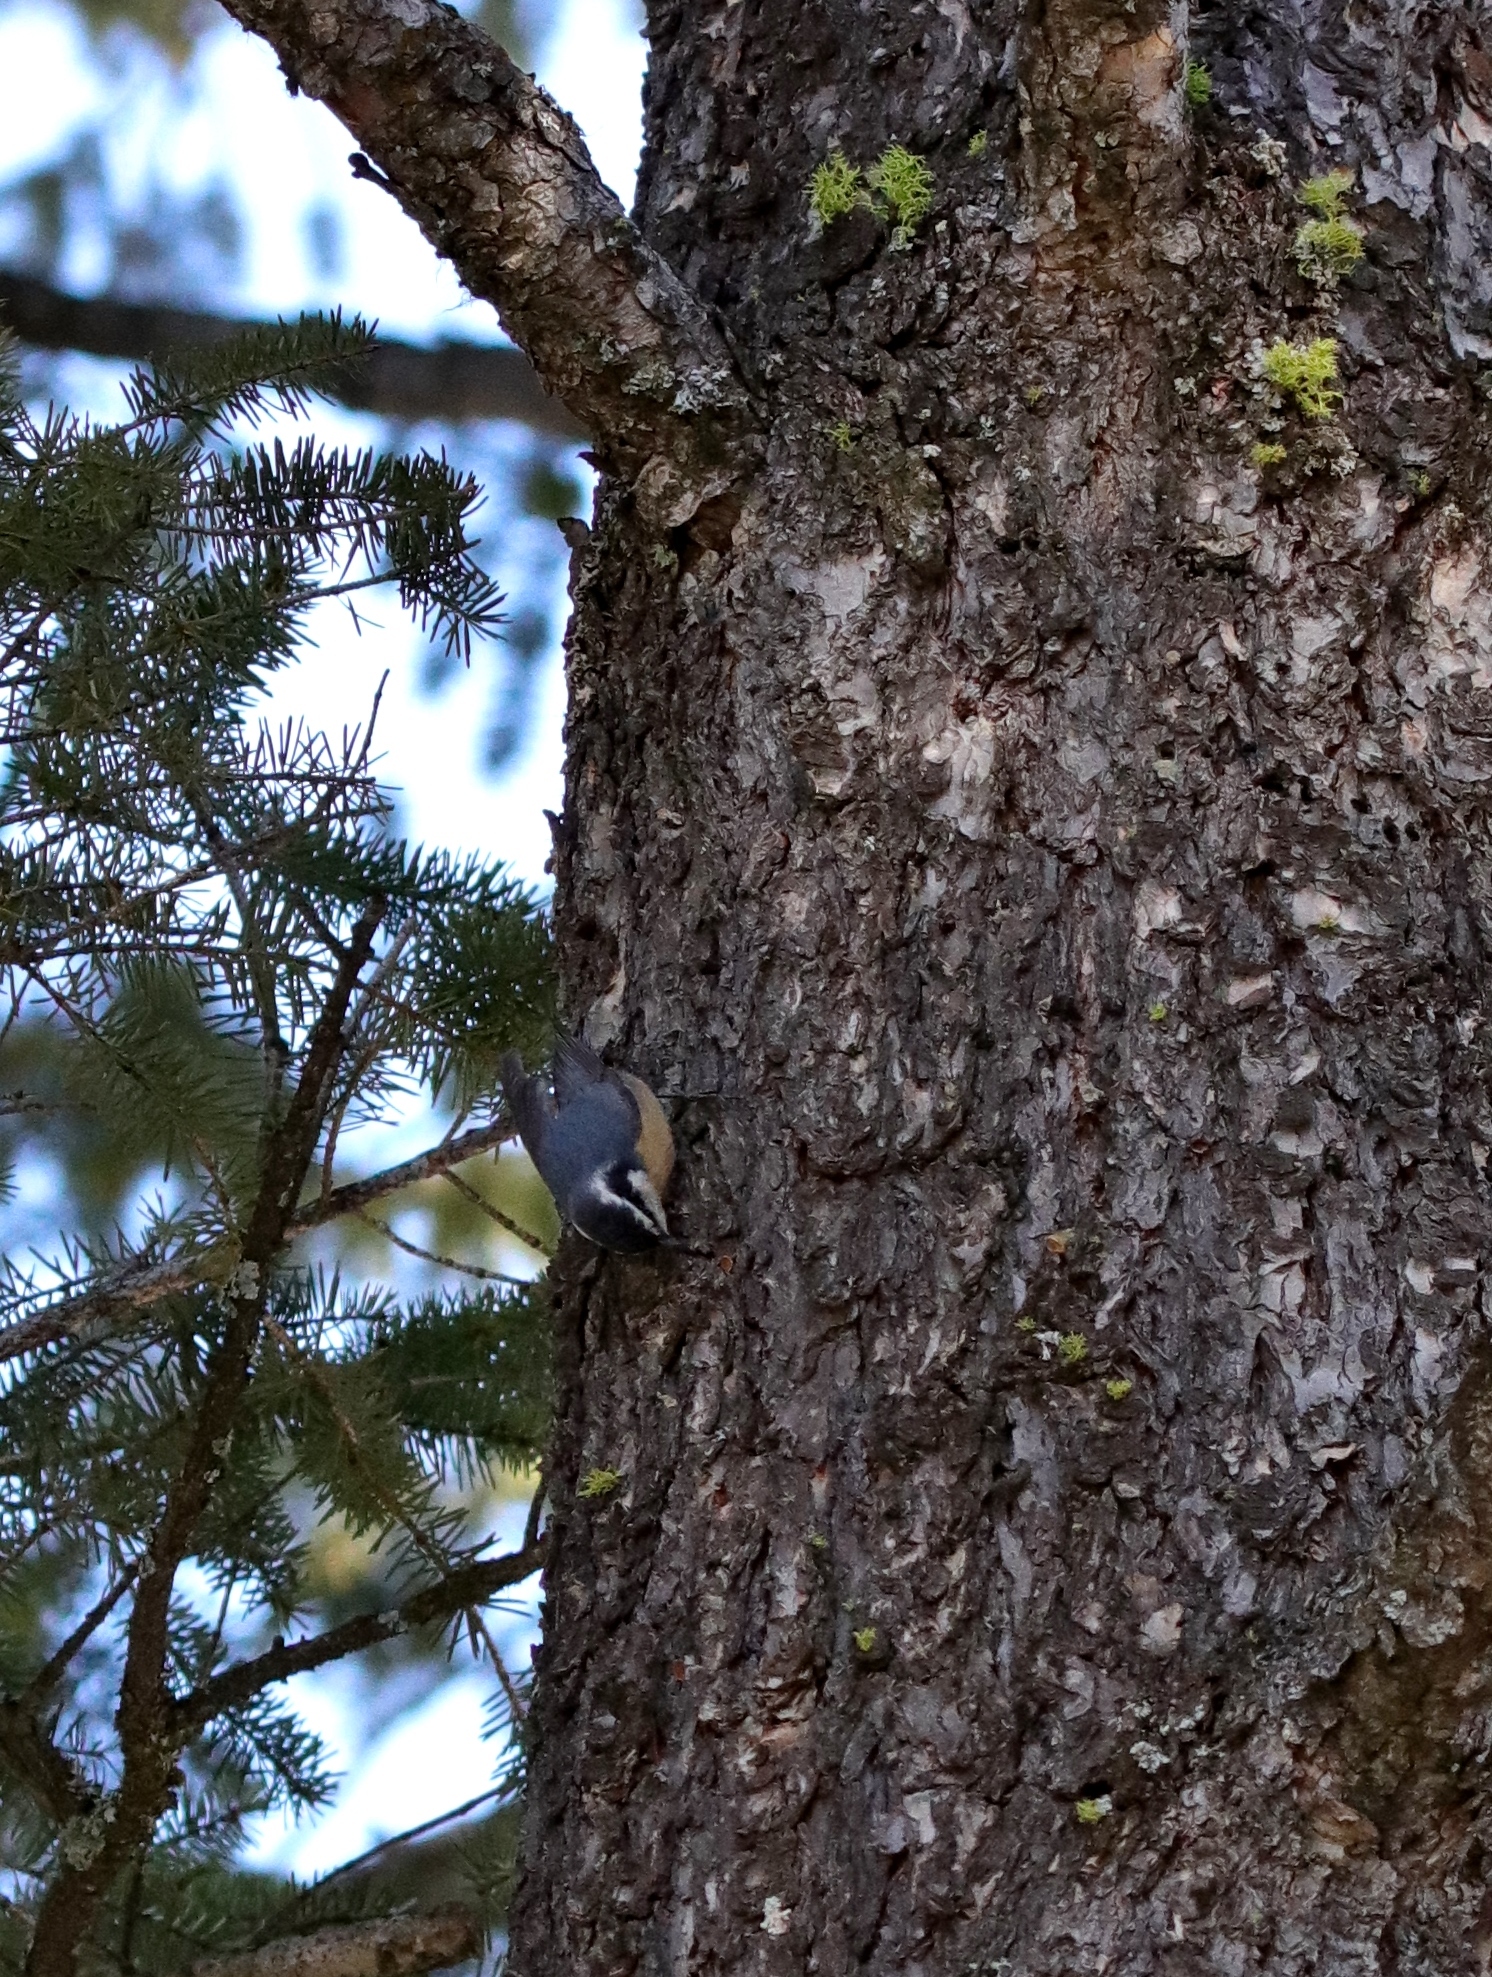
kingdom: Animalia
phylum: Chordata
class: Aves
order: Passeriformes
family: Sittidae
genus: Sitta
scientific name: Sitta canadensis
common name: Red-breasted nuthatch
